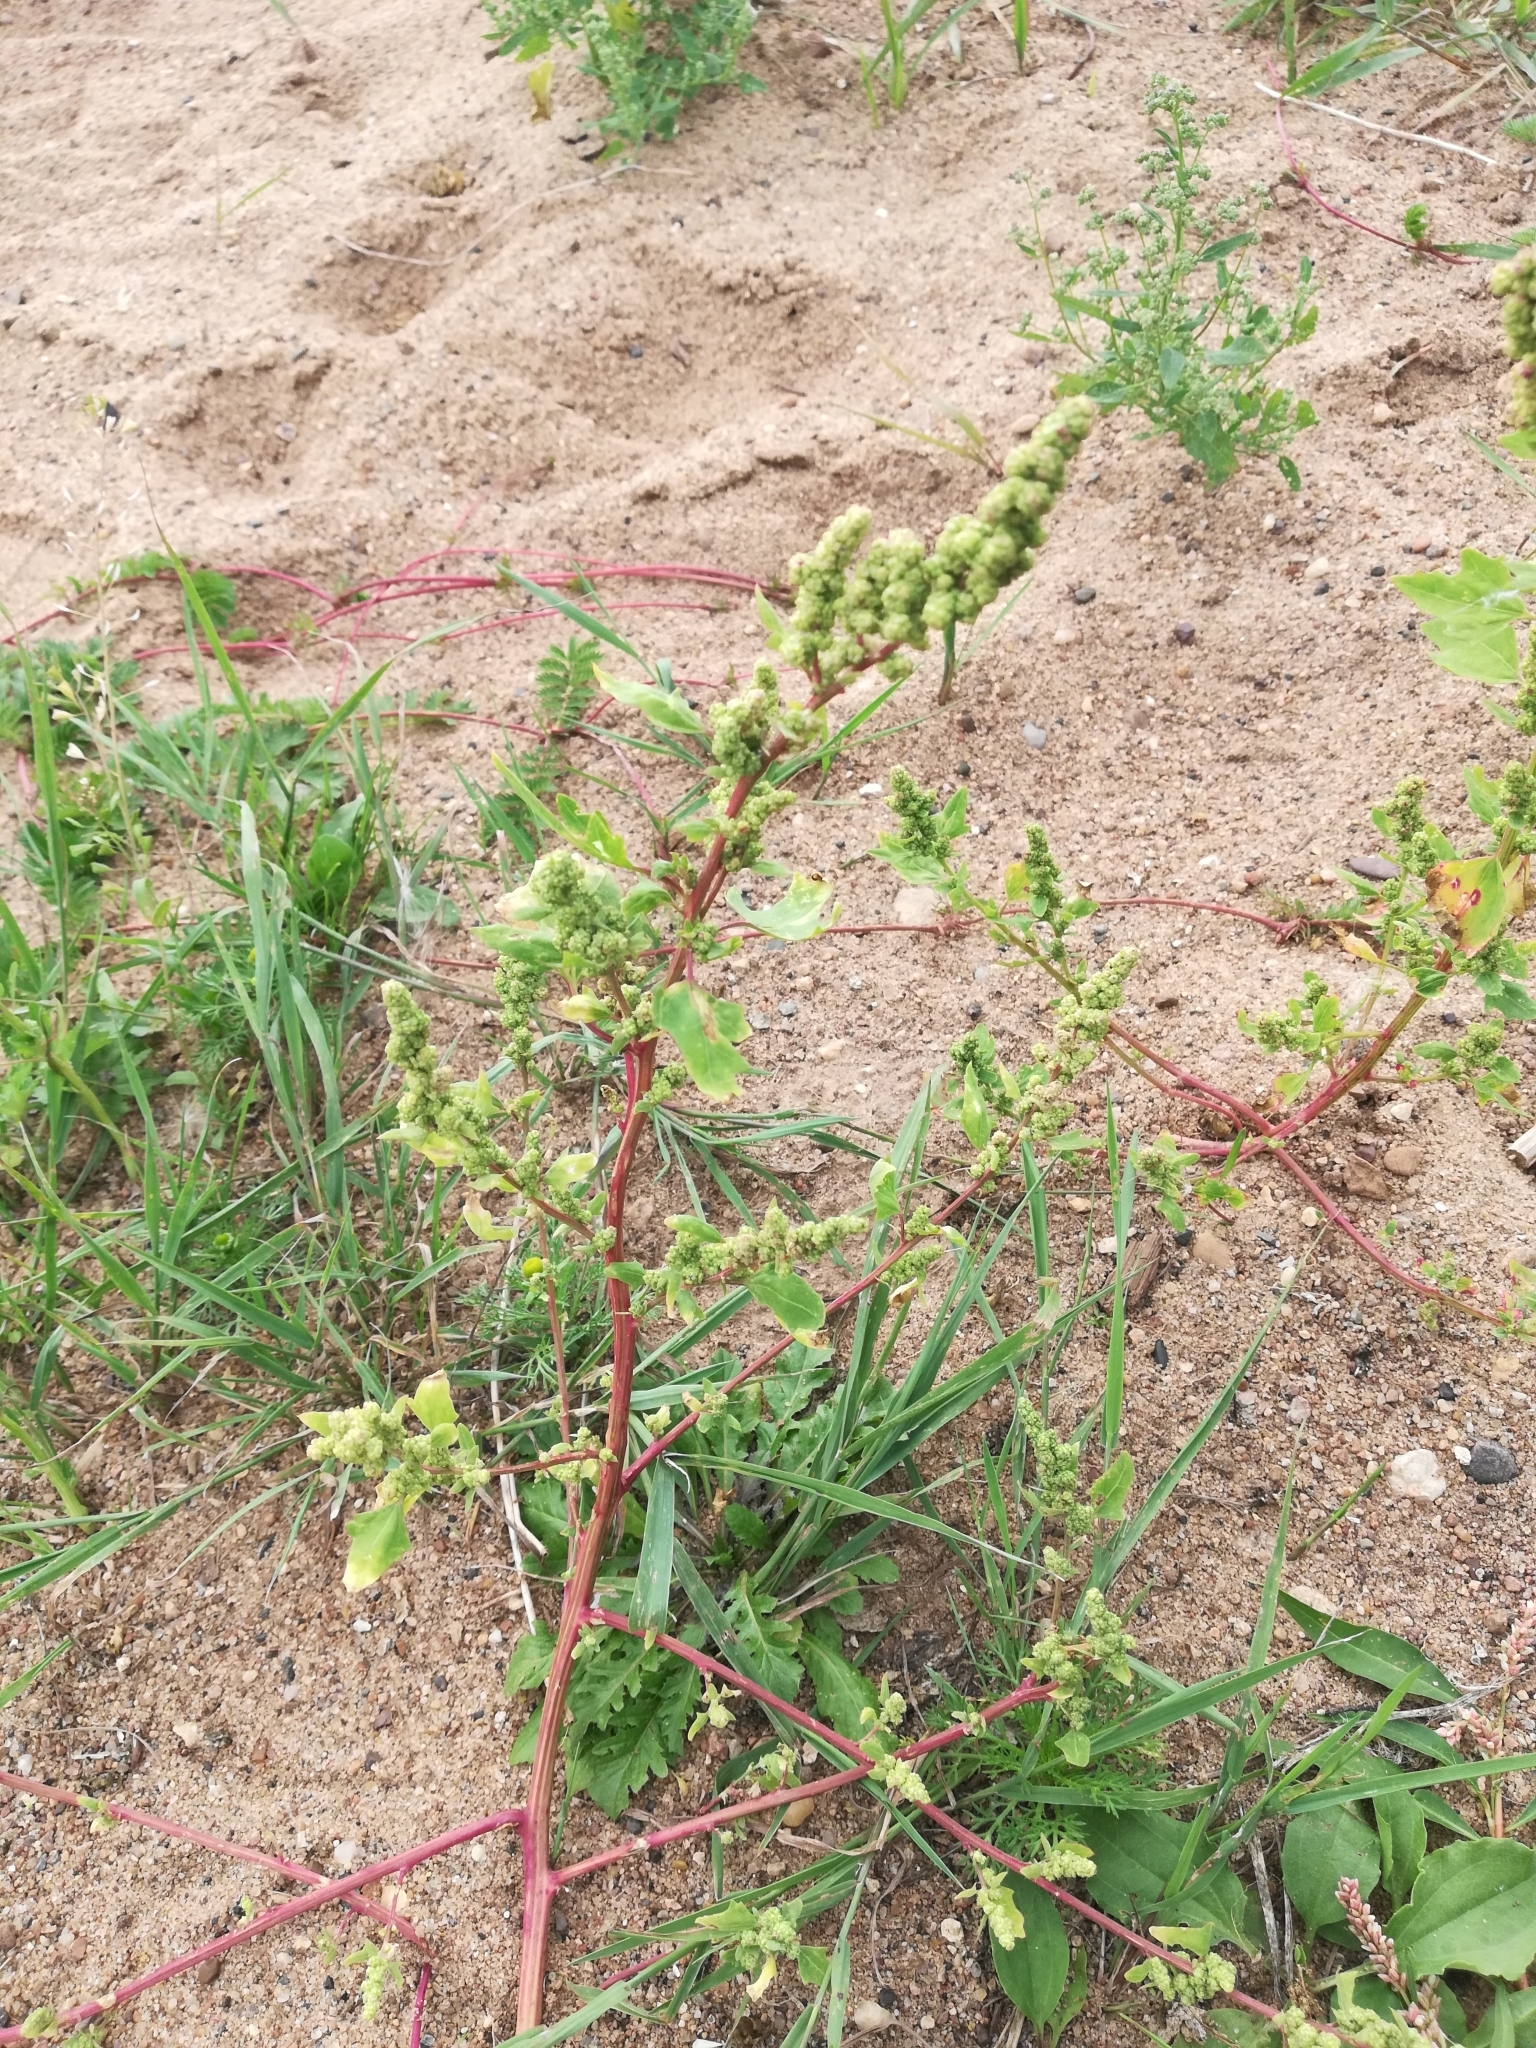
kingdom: Plantae
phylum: Tracheophyta
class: Magnoliopsida
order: Caryophyllales
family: Amaranthaceae
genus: Chenopodium
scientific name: Chenopodium album
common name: Fat-hen
